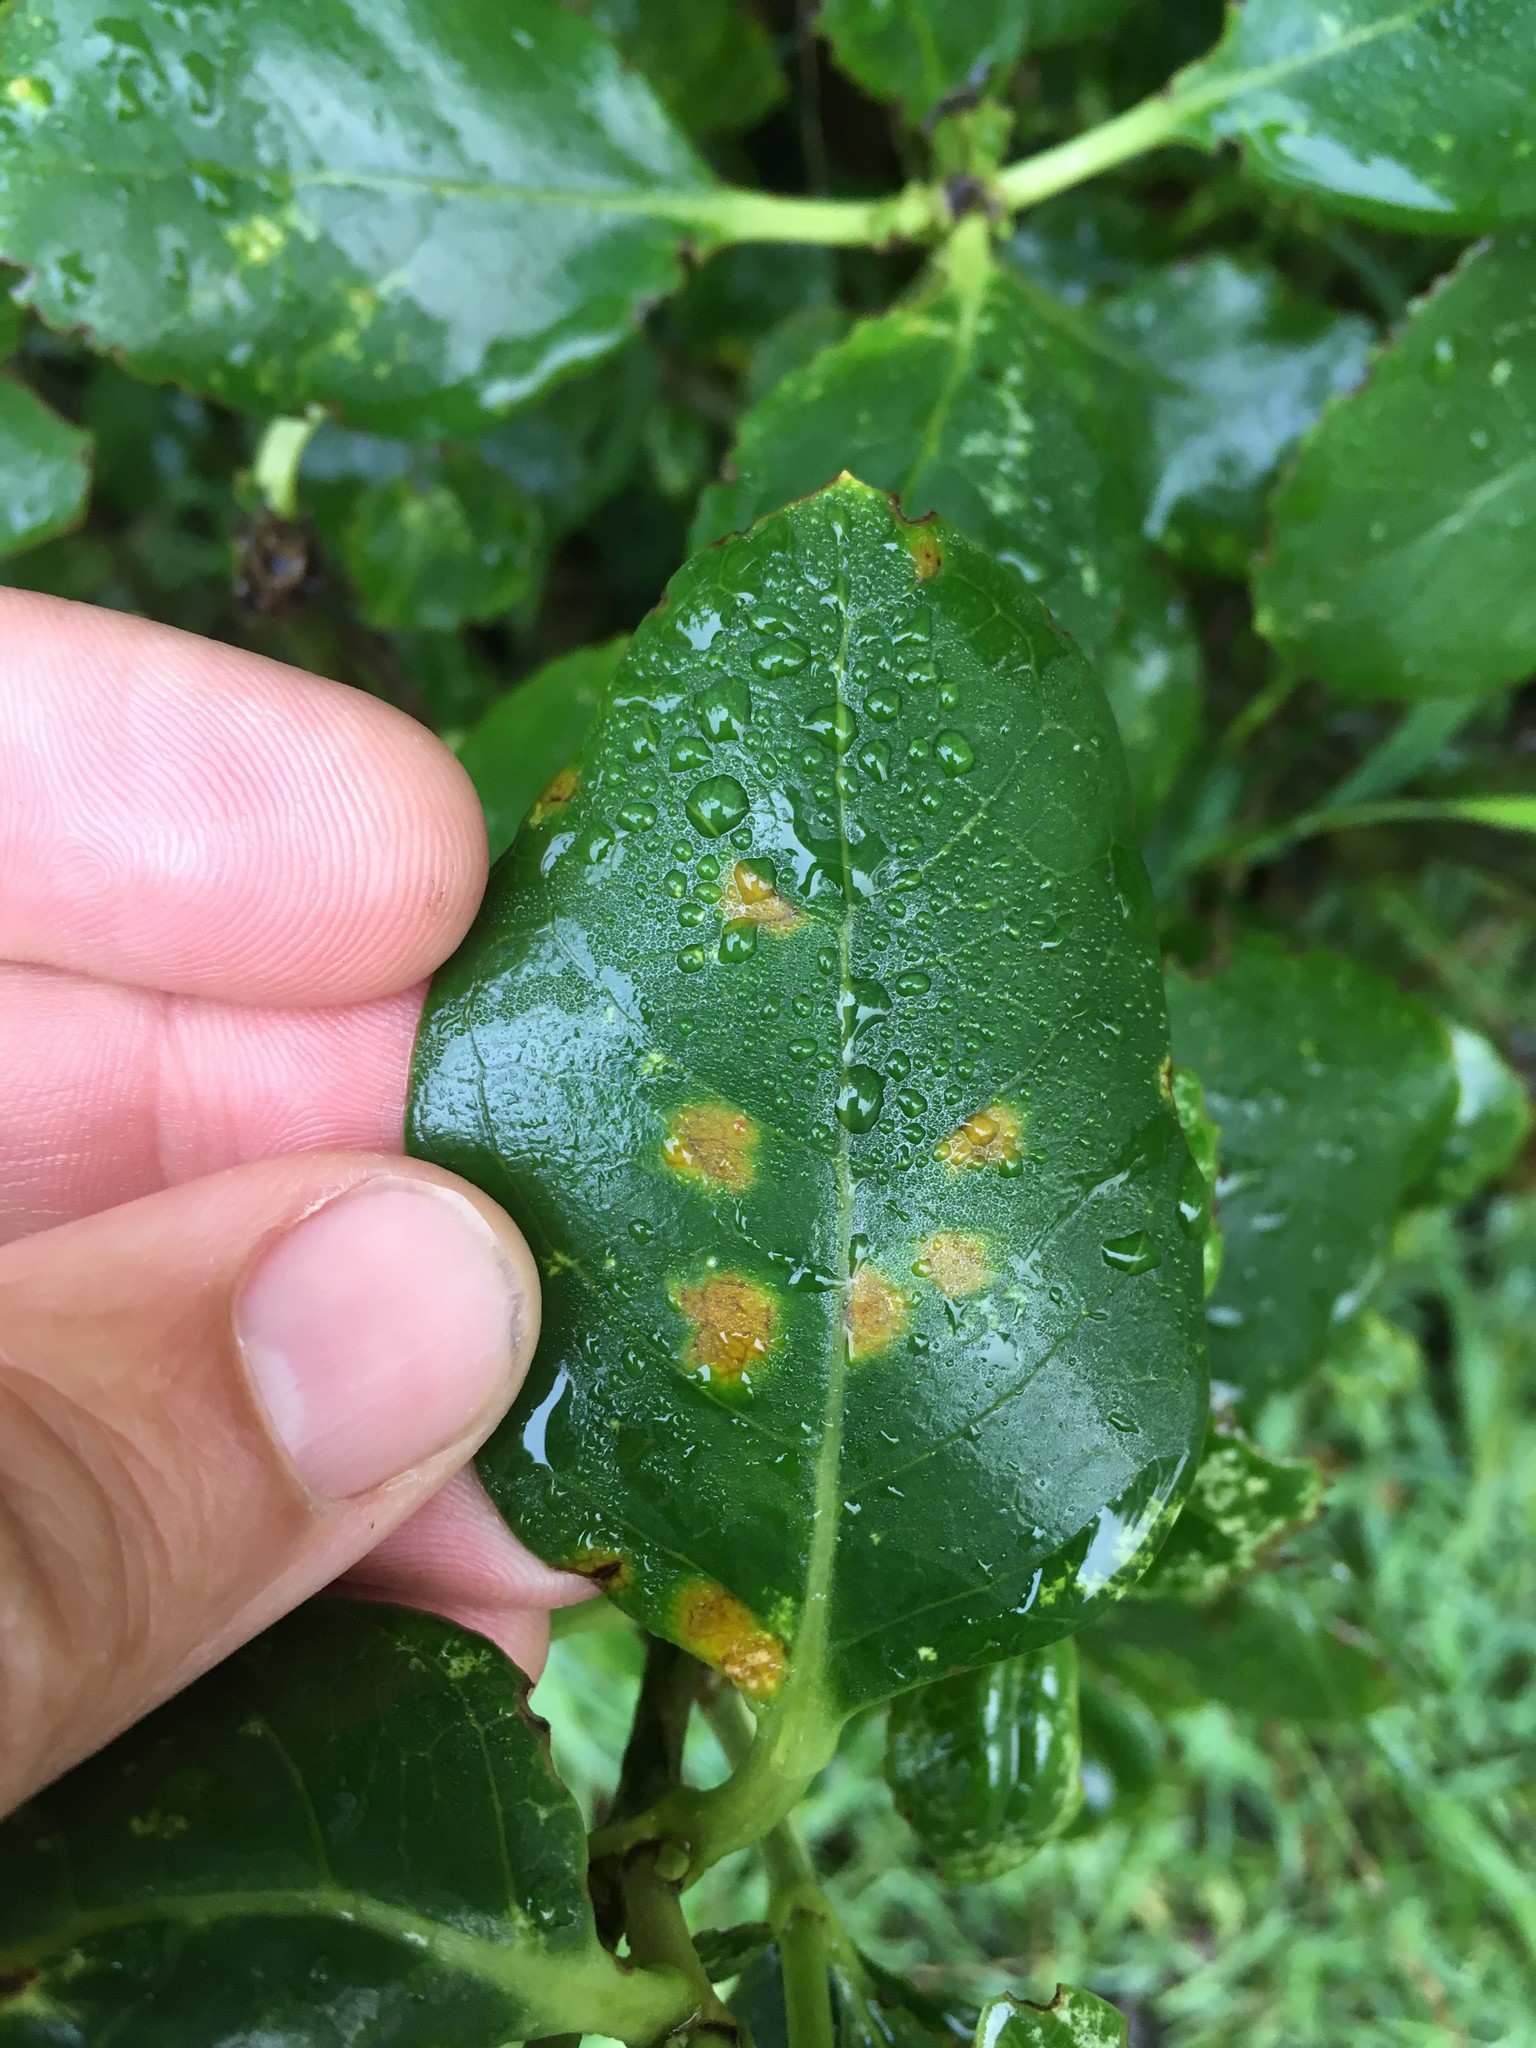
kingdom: Fungi
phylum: Basidiomycota
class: Pucciniomycetes
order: Pucciniales
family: Pucciniaceae
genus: Puccinia
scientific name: Puccinia coprosmae
